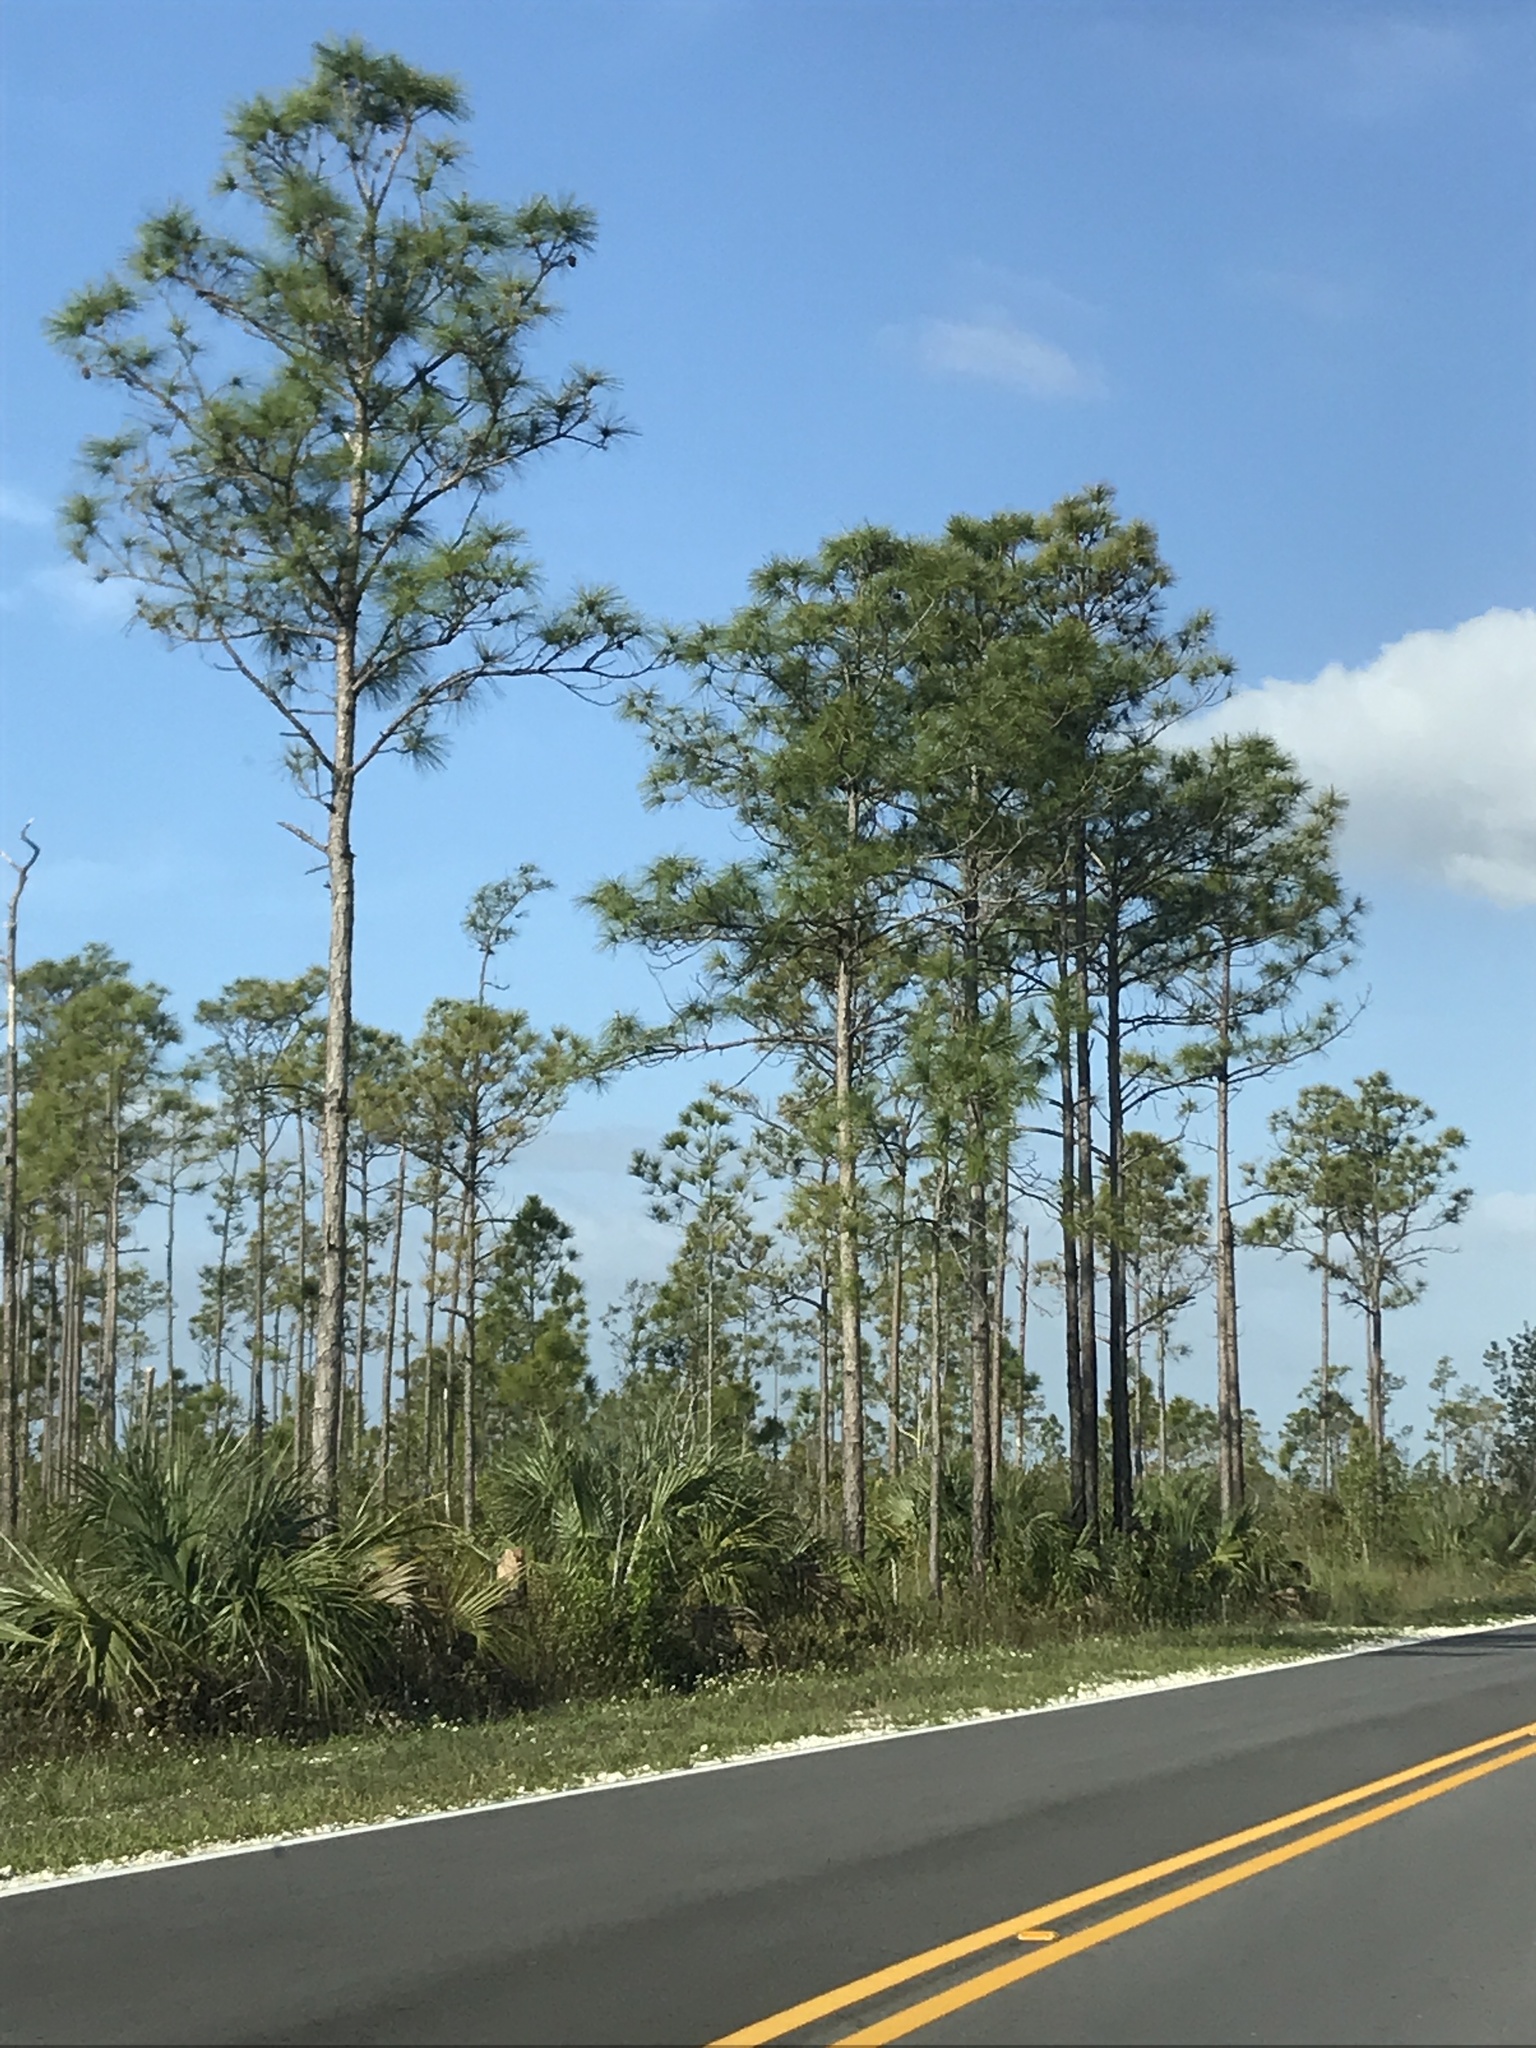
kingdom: Plantae
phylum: Tracheophyta
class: Pinopsida
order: Pinales
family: Pinaceae
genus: Pinus
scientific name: Pinus elliottii
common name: Slash pine
